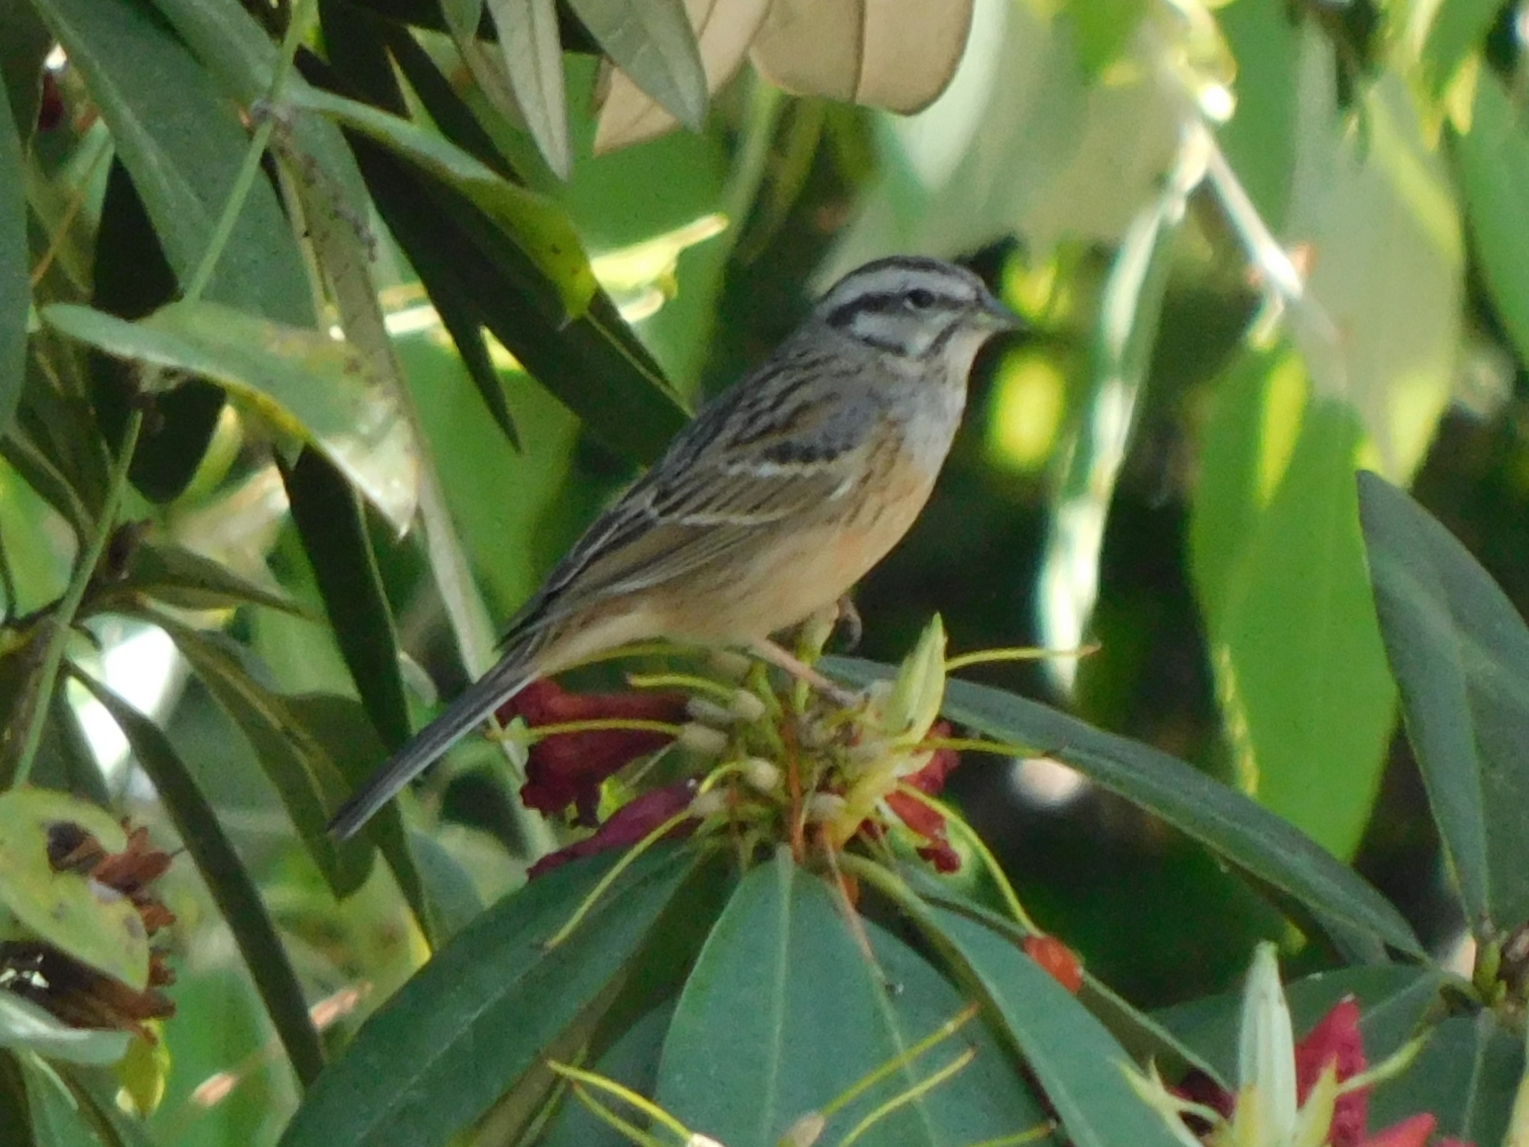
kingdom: Animalia
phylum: Chordata
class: Aves
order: Passeriformes
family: Emberizidae
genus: Emberiza
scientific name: Emberiza cia
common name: Rock bunting
